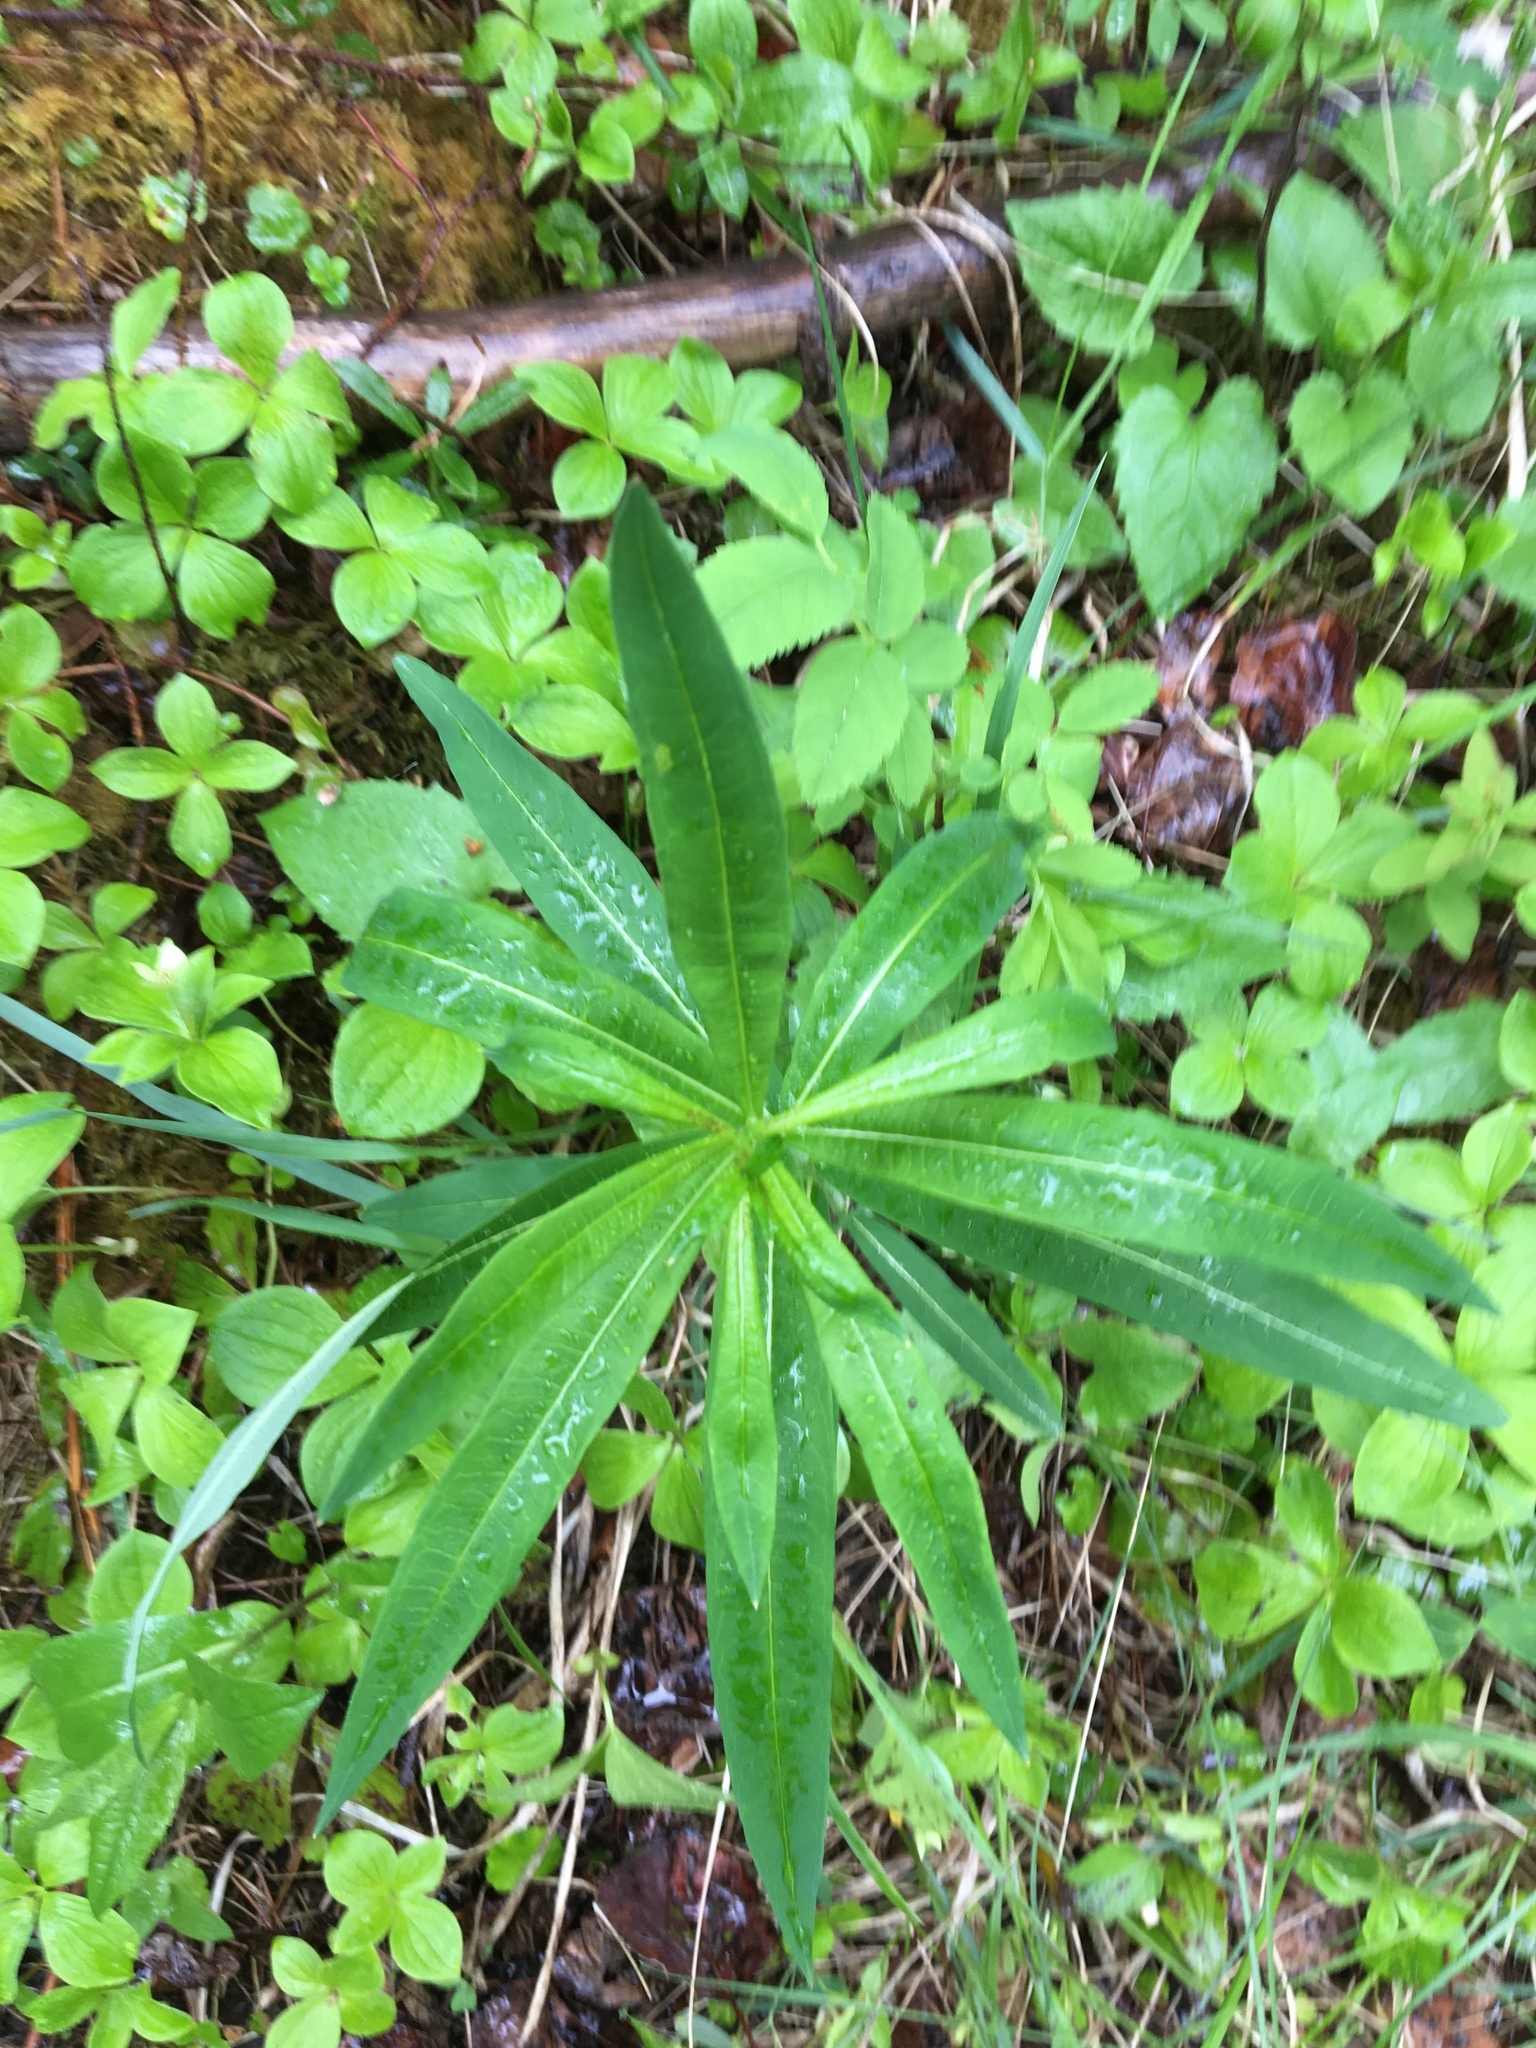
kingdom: Plantae
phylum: Tracheophyta
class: Magnoliopsida
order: Myrtales
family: Onagraceae
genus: Chamaenerion
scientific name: Chamaenerion angustifolium
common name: Fireweed
